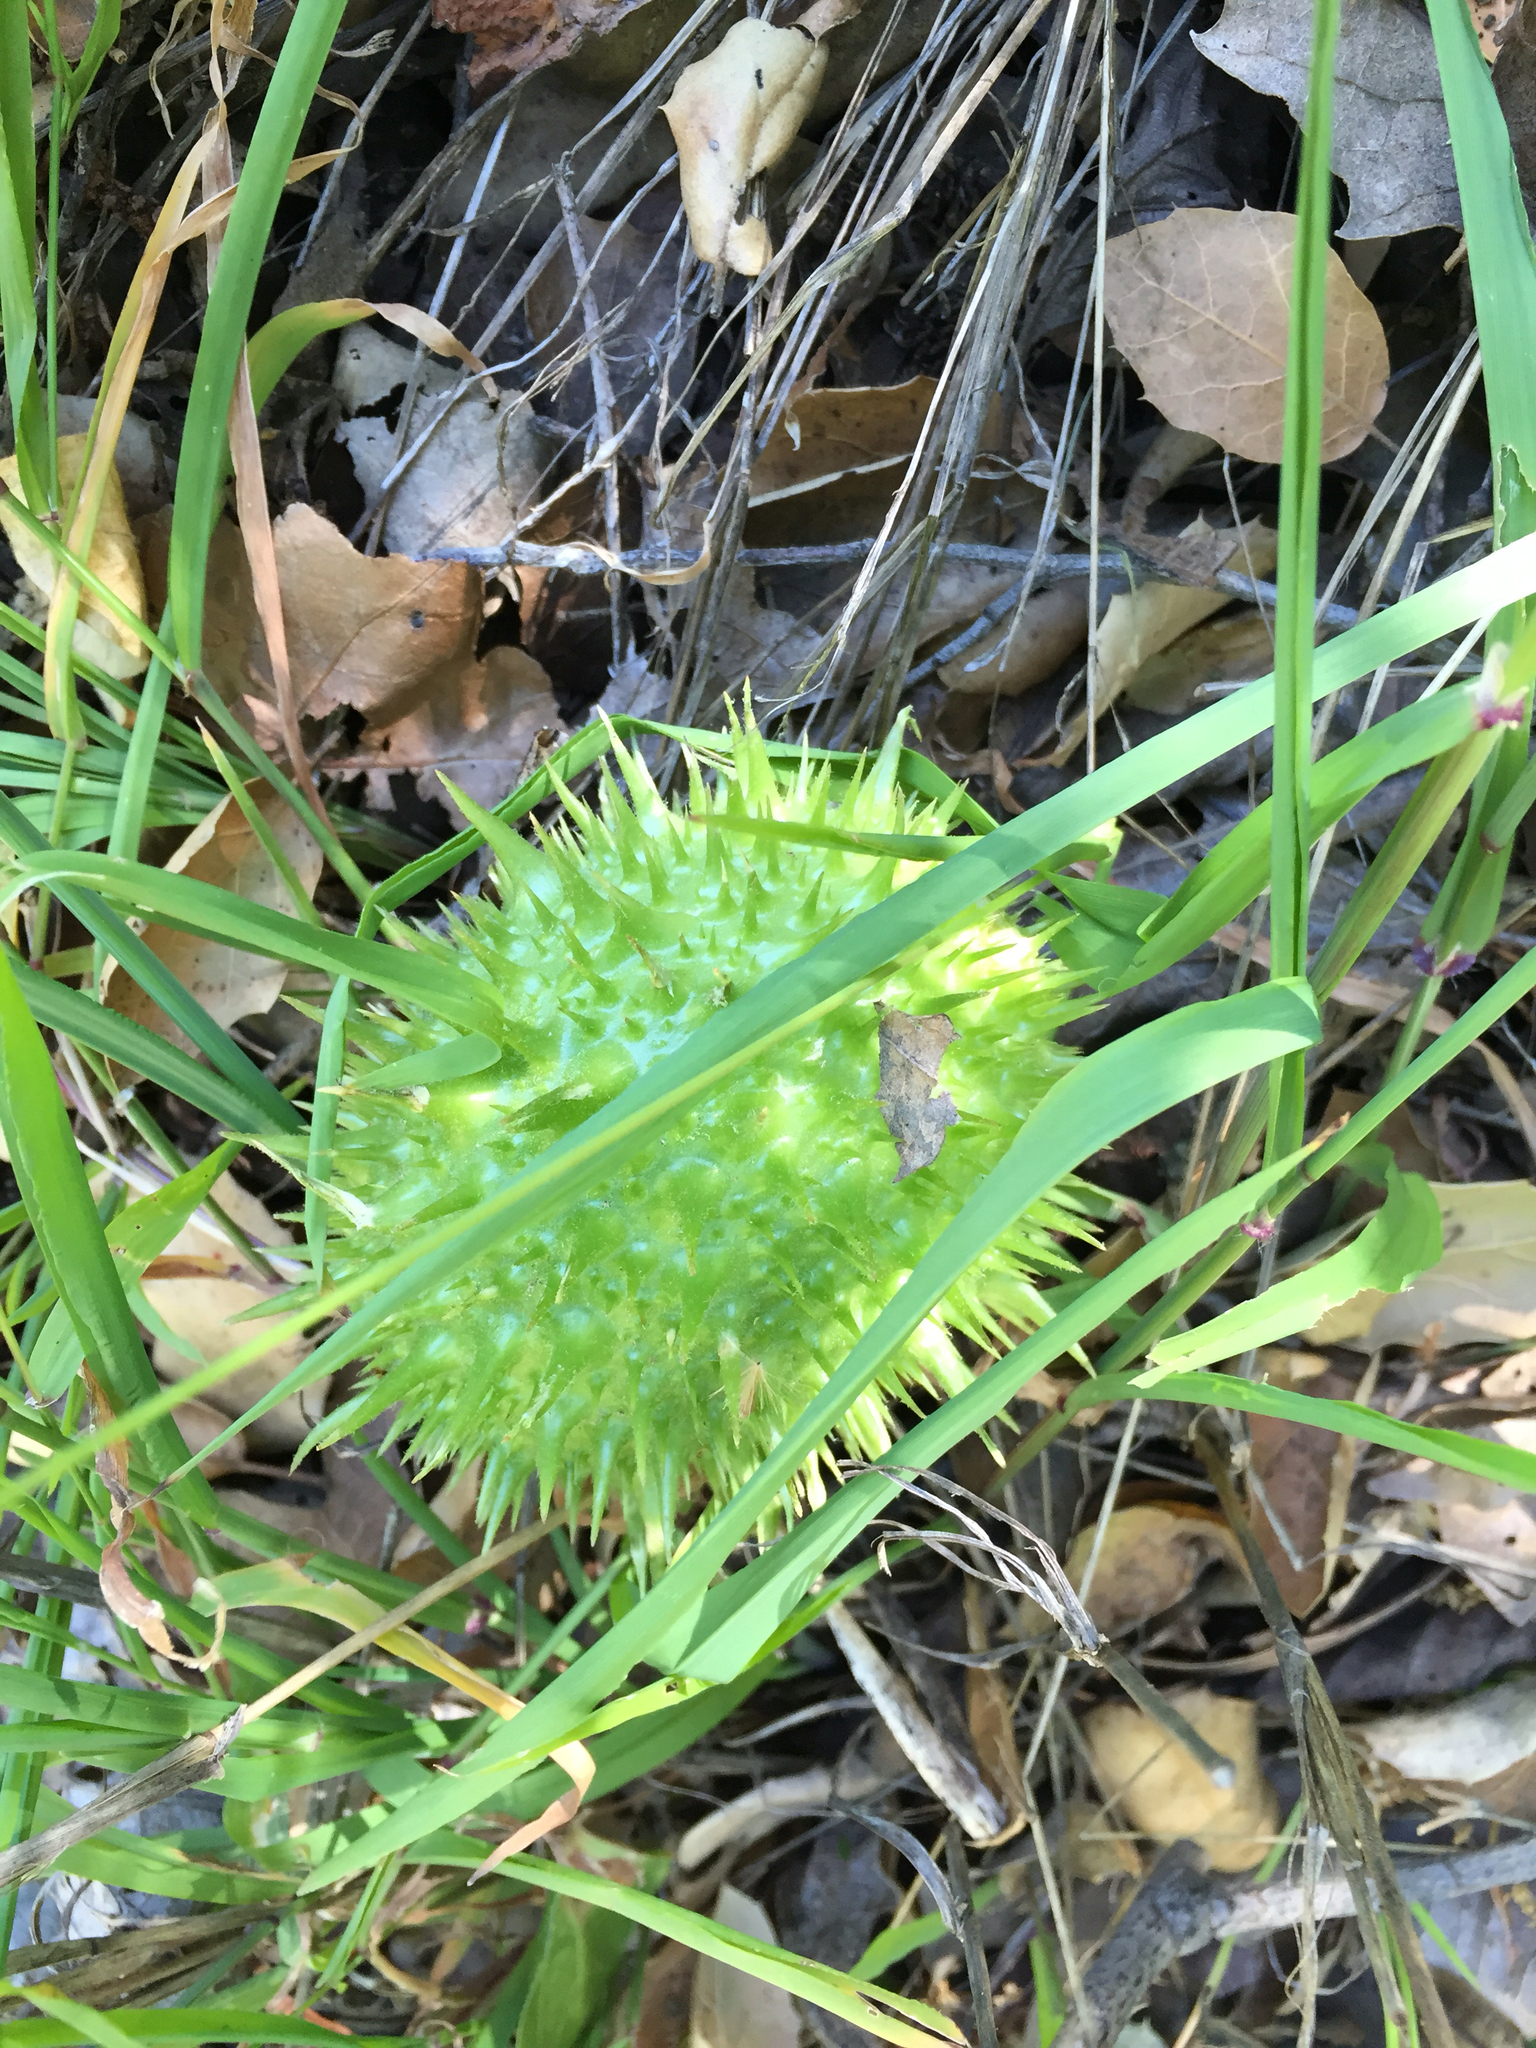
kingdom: Plantae
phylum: Tracheophyta
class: Magnoliopsida
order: Cucurbitales
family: Cucurbitaceae
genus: Marah
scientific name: Marah macrocarpa
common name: Cucamonga manroot
